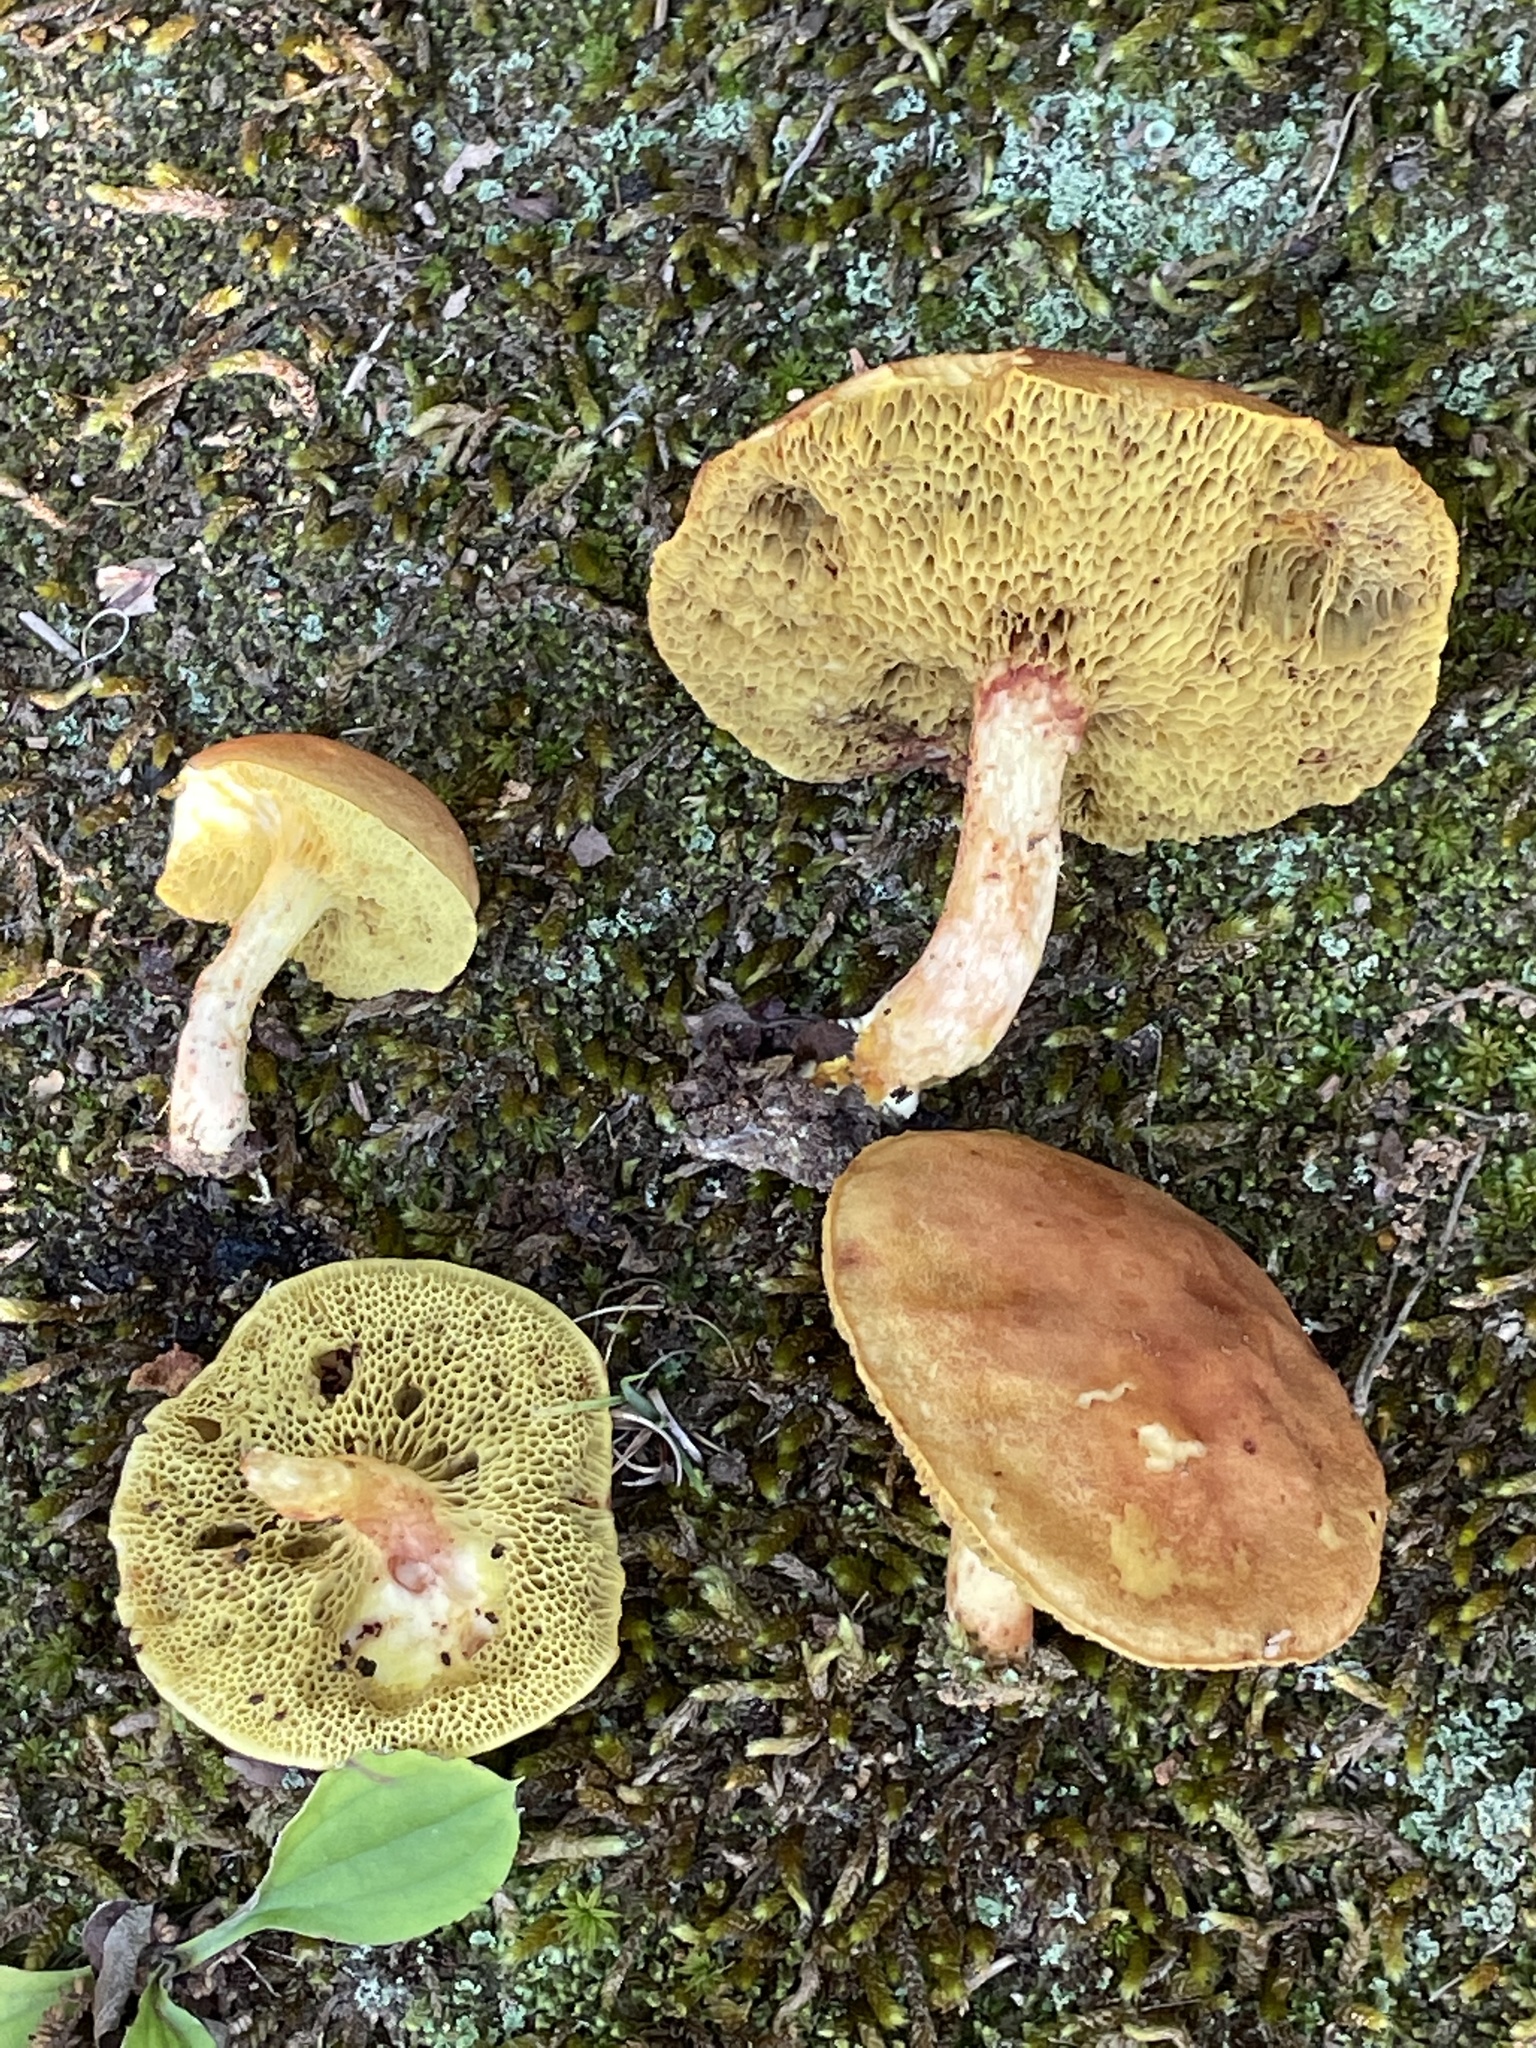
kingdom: Fungi
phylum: Basidiomycota
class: Agaricomycetes
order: Boletales
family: Boletaceae
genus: Boletus
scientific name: Boletus ochraceoluteus
